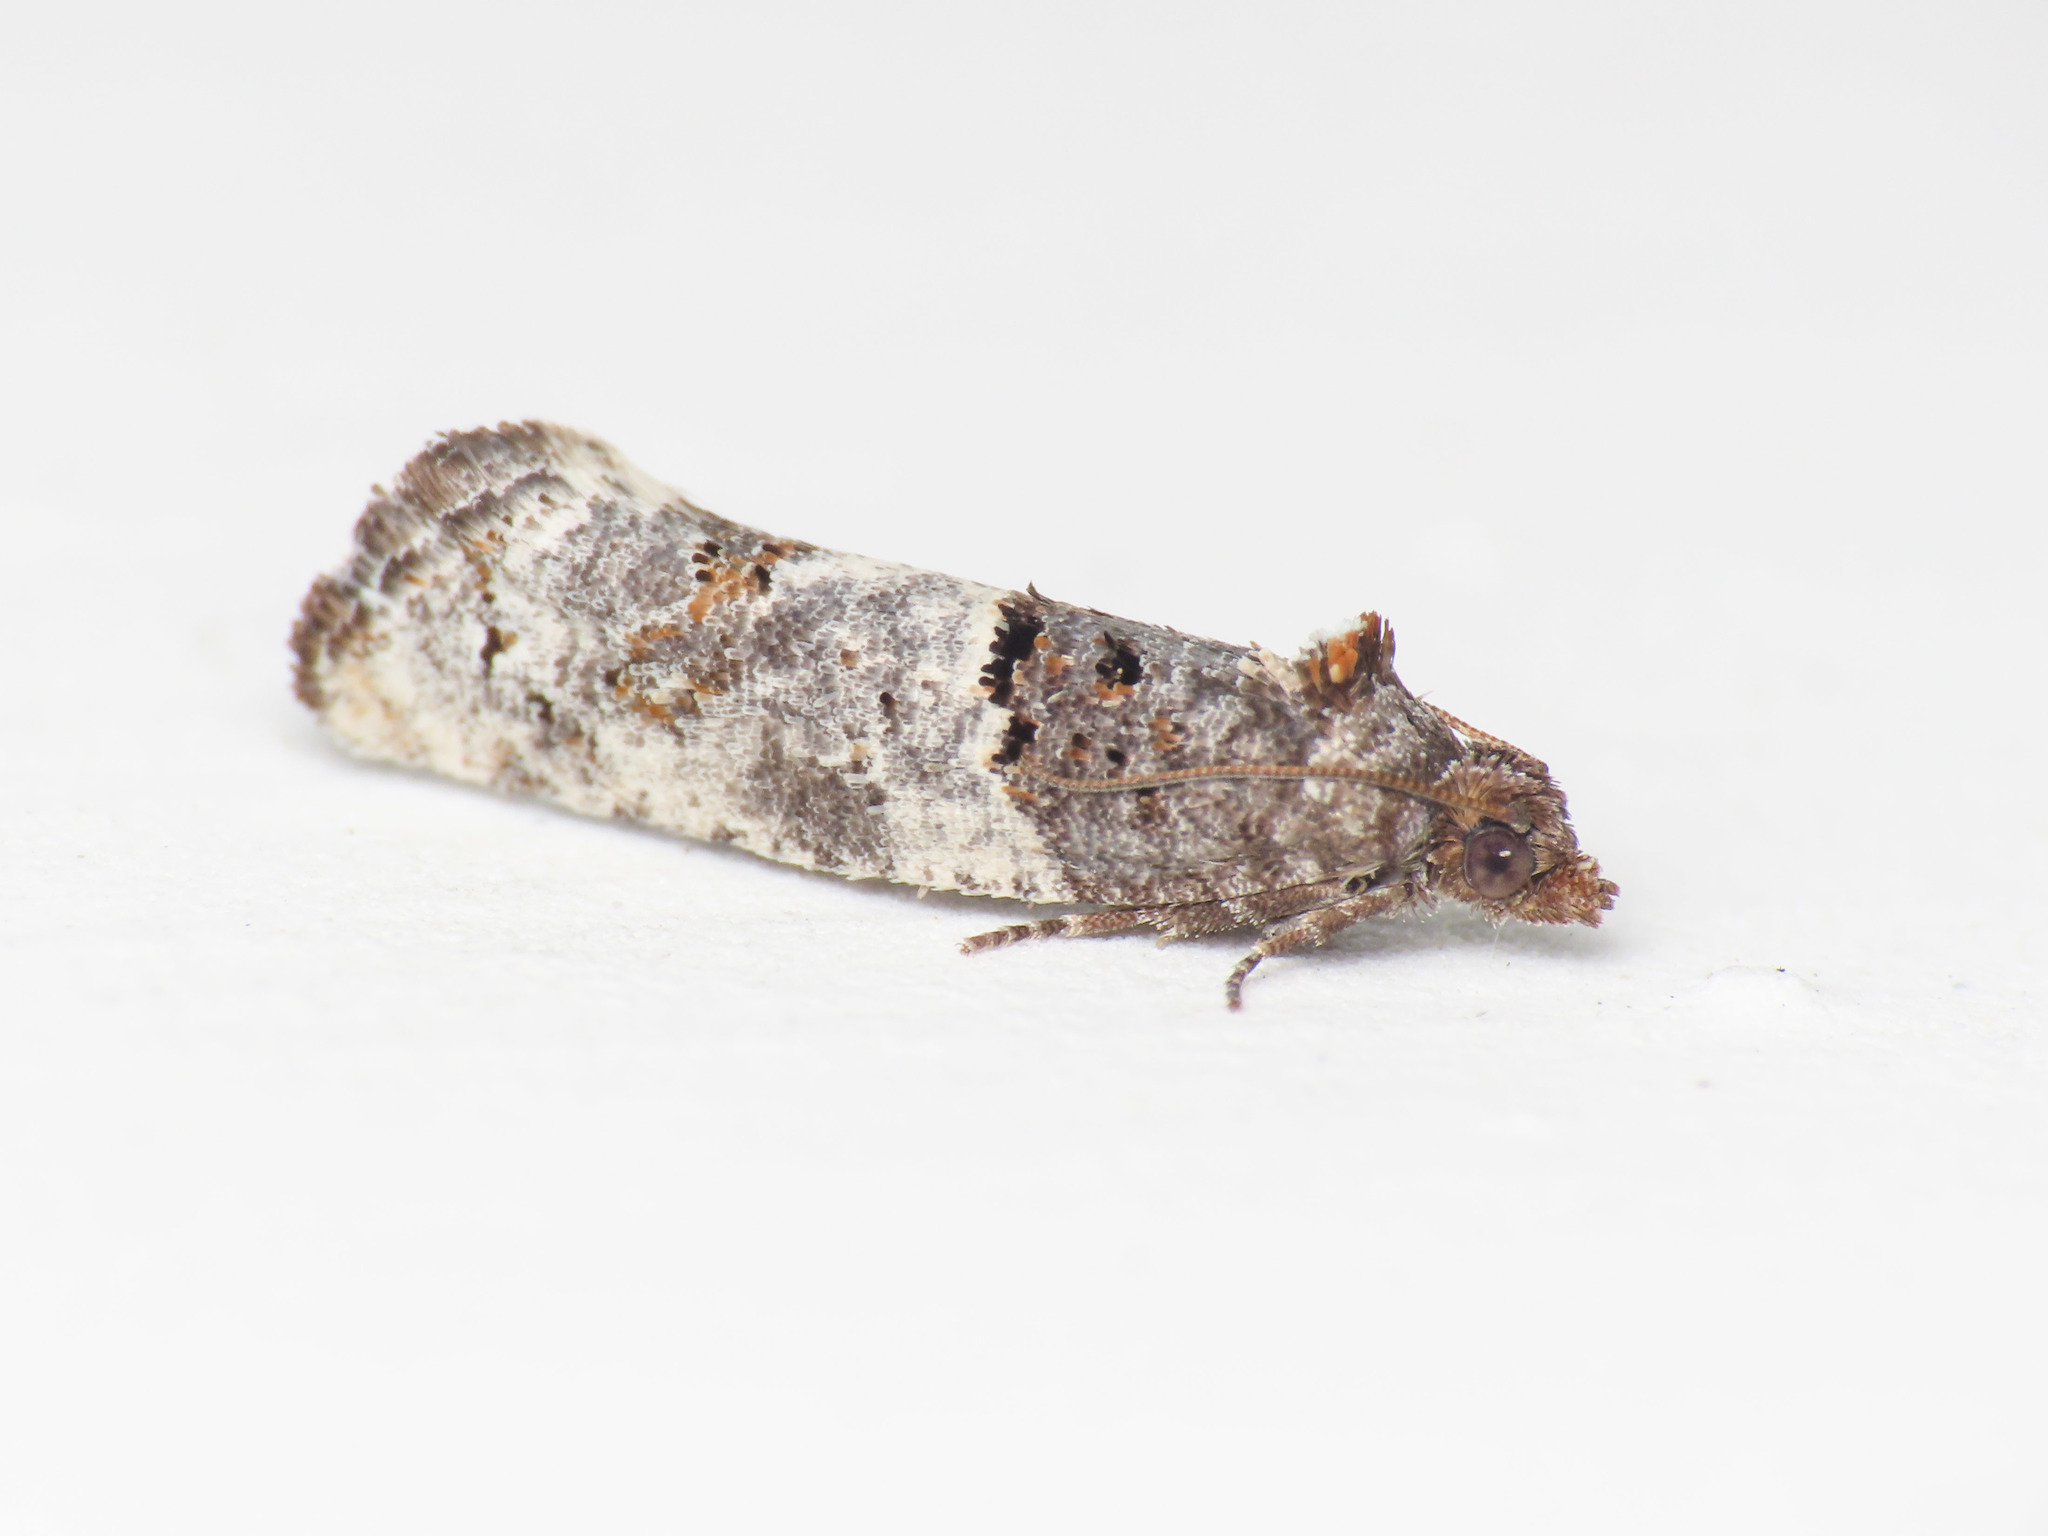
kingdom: Animalia
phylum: Arthropoda
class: Insecta
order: Lepidoptera
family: Tortricidae
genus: Phaneta
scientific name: Phaneta pauperana
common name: Scarce rose bell
